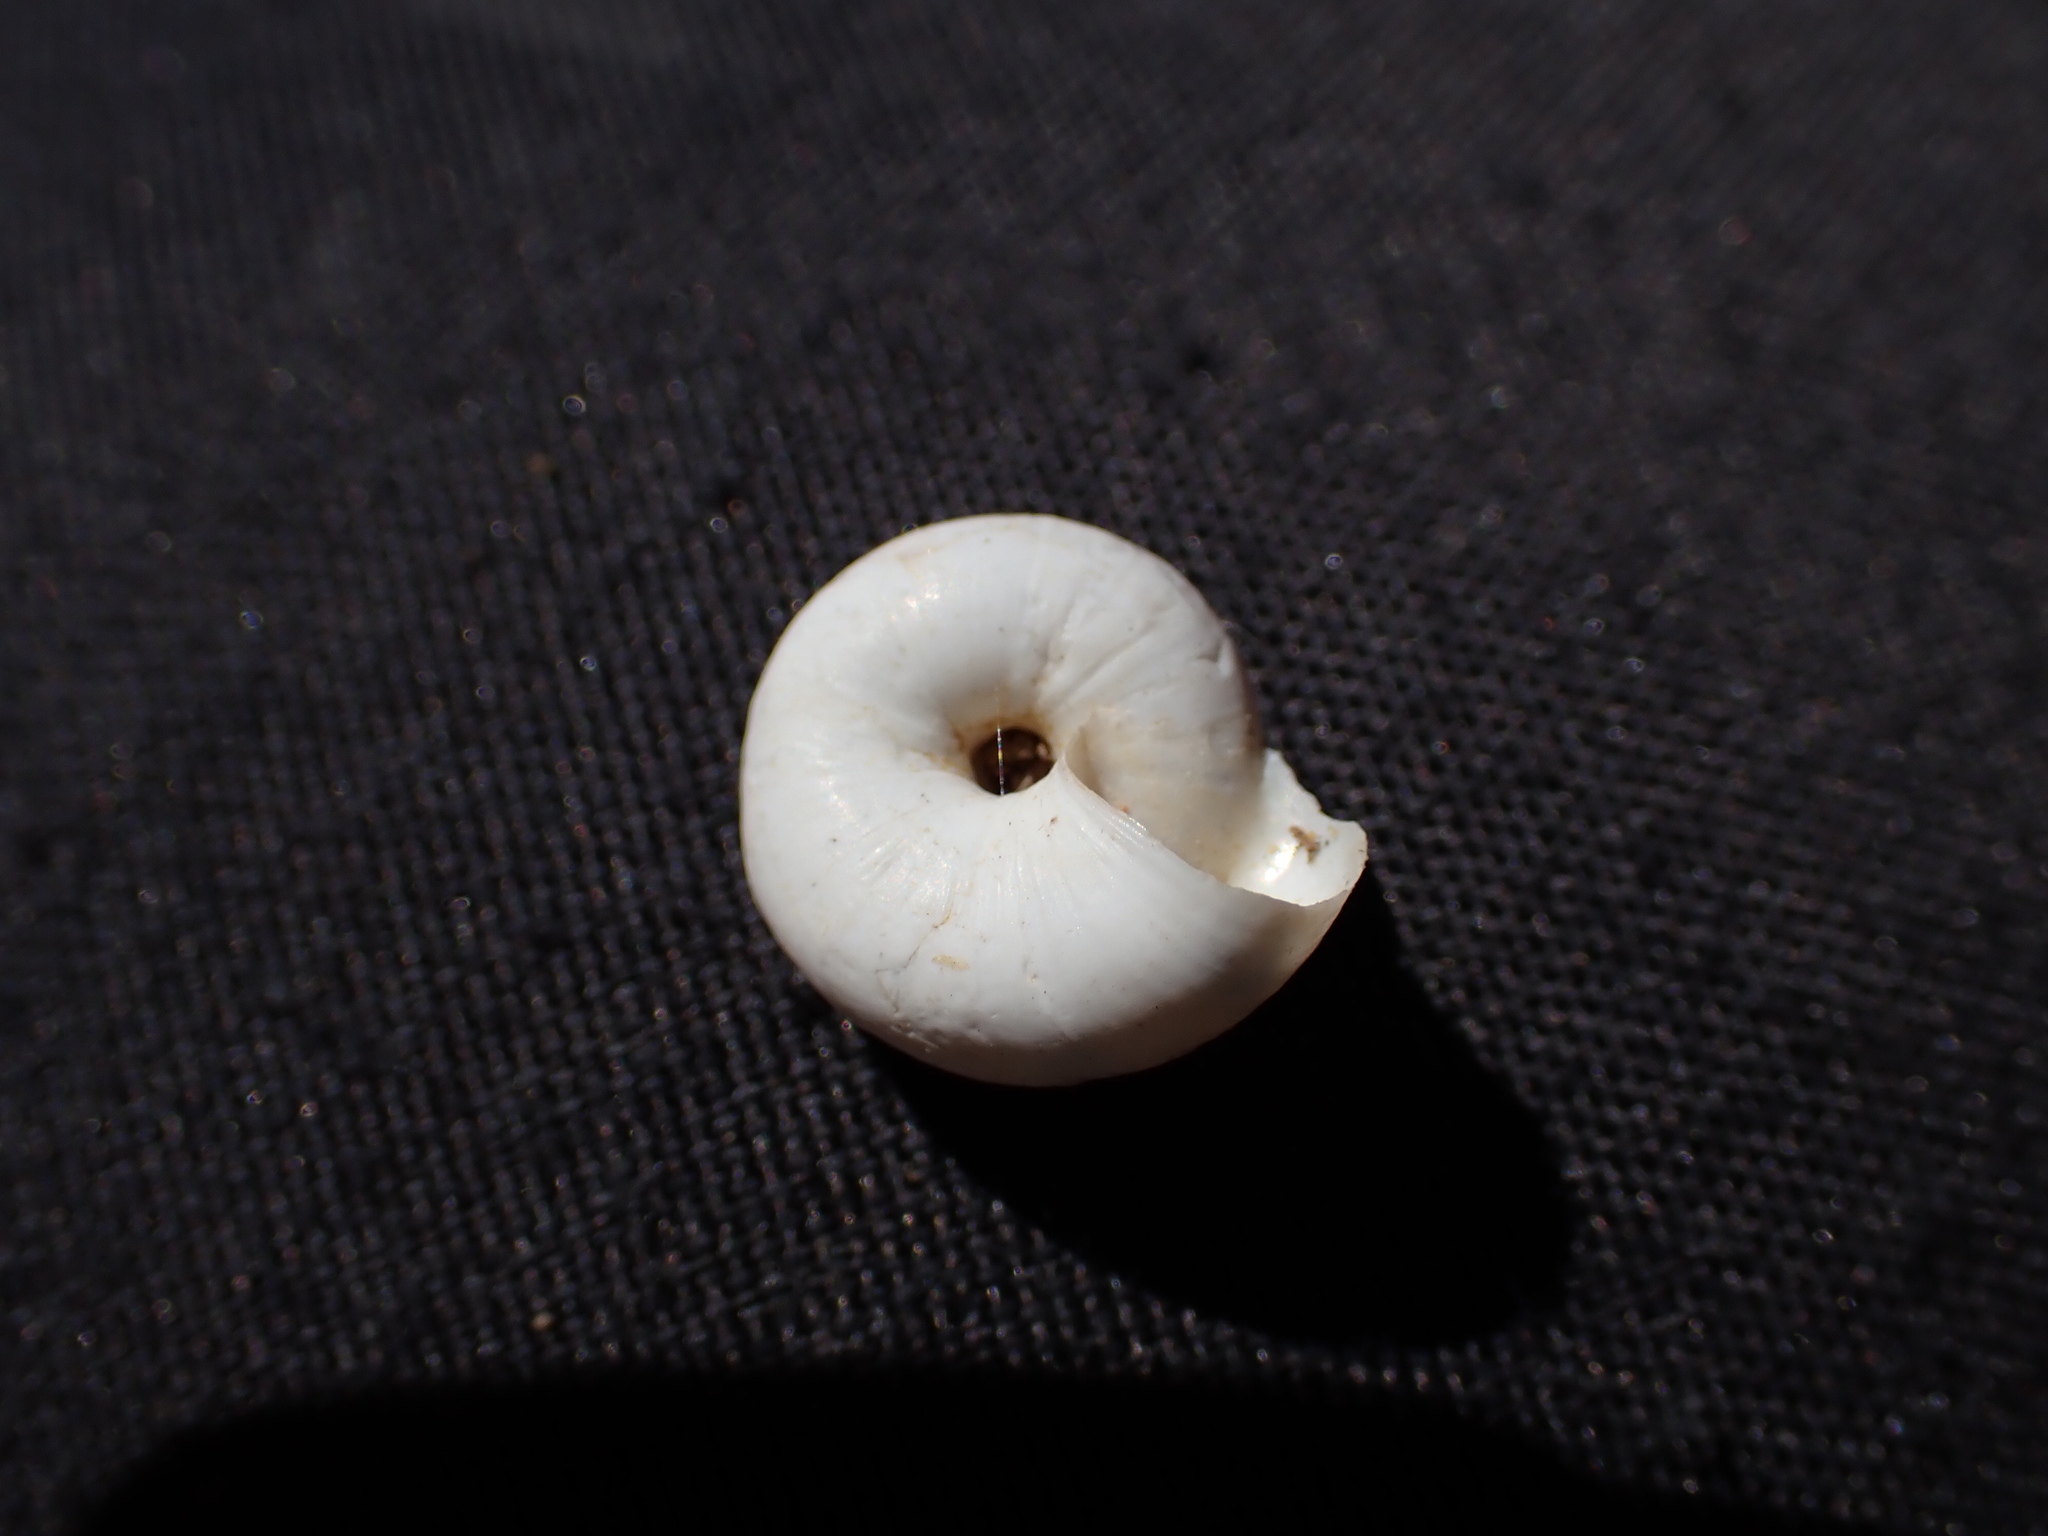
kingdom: Animalia
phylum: Mollusca
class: Gastropoda
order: Stylommatophora
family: Geomitridae
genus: Xeropicta
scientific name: Xeropicta derbentina
